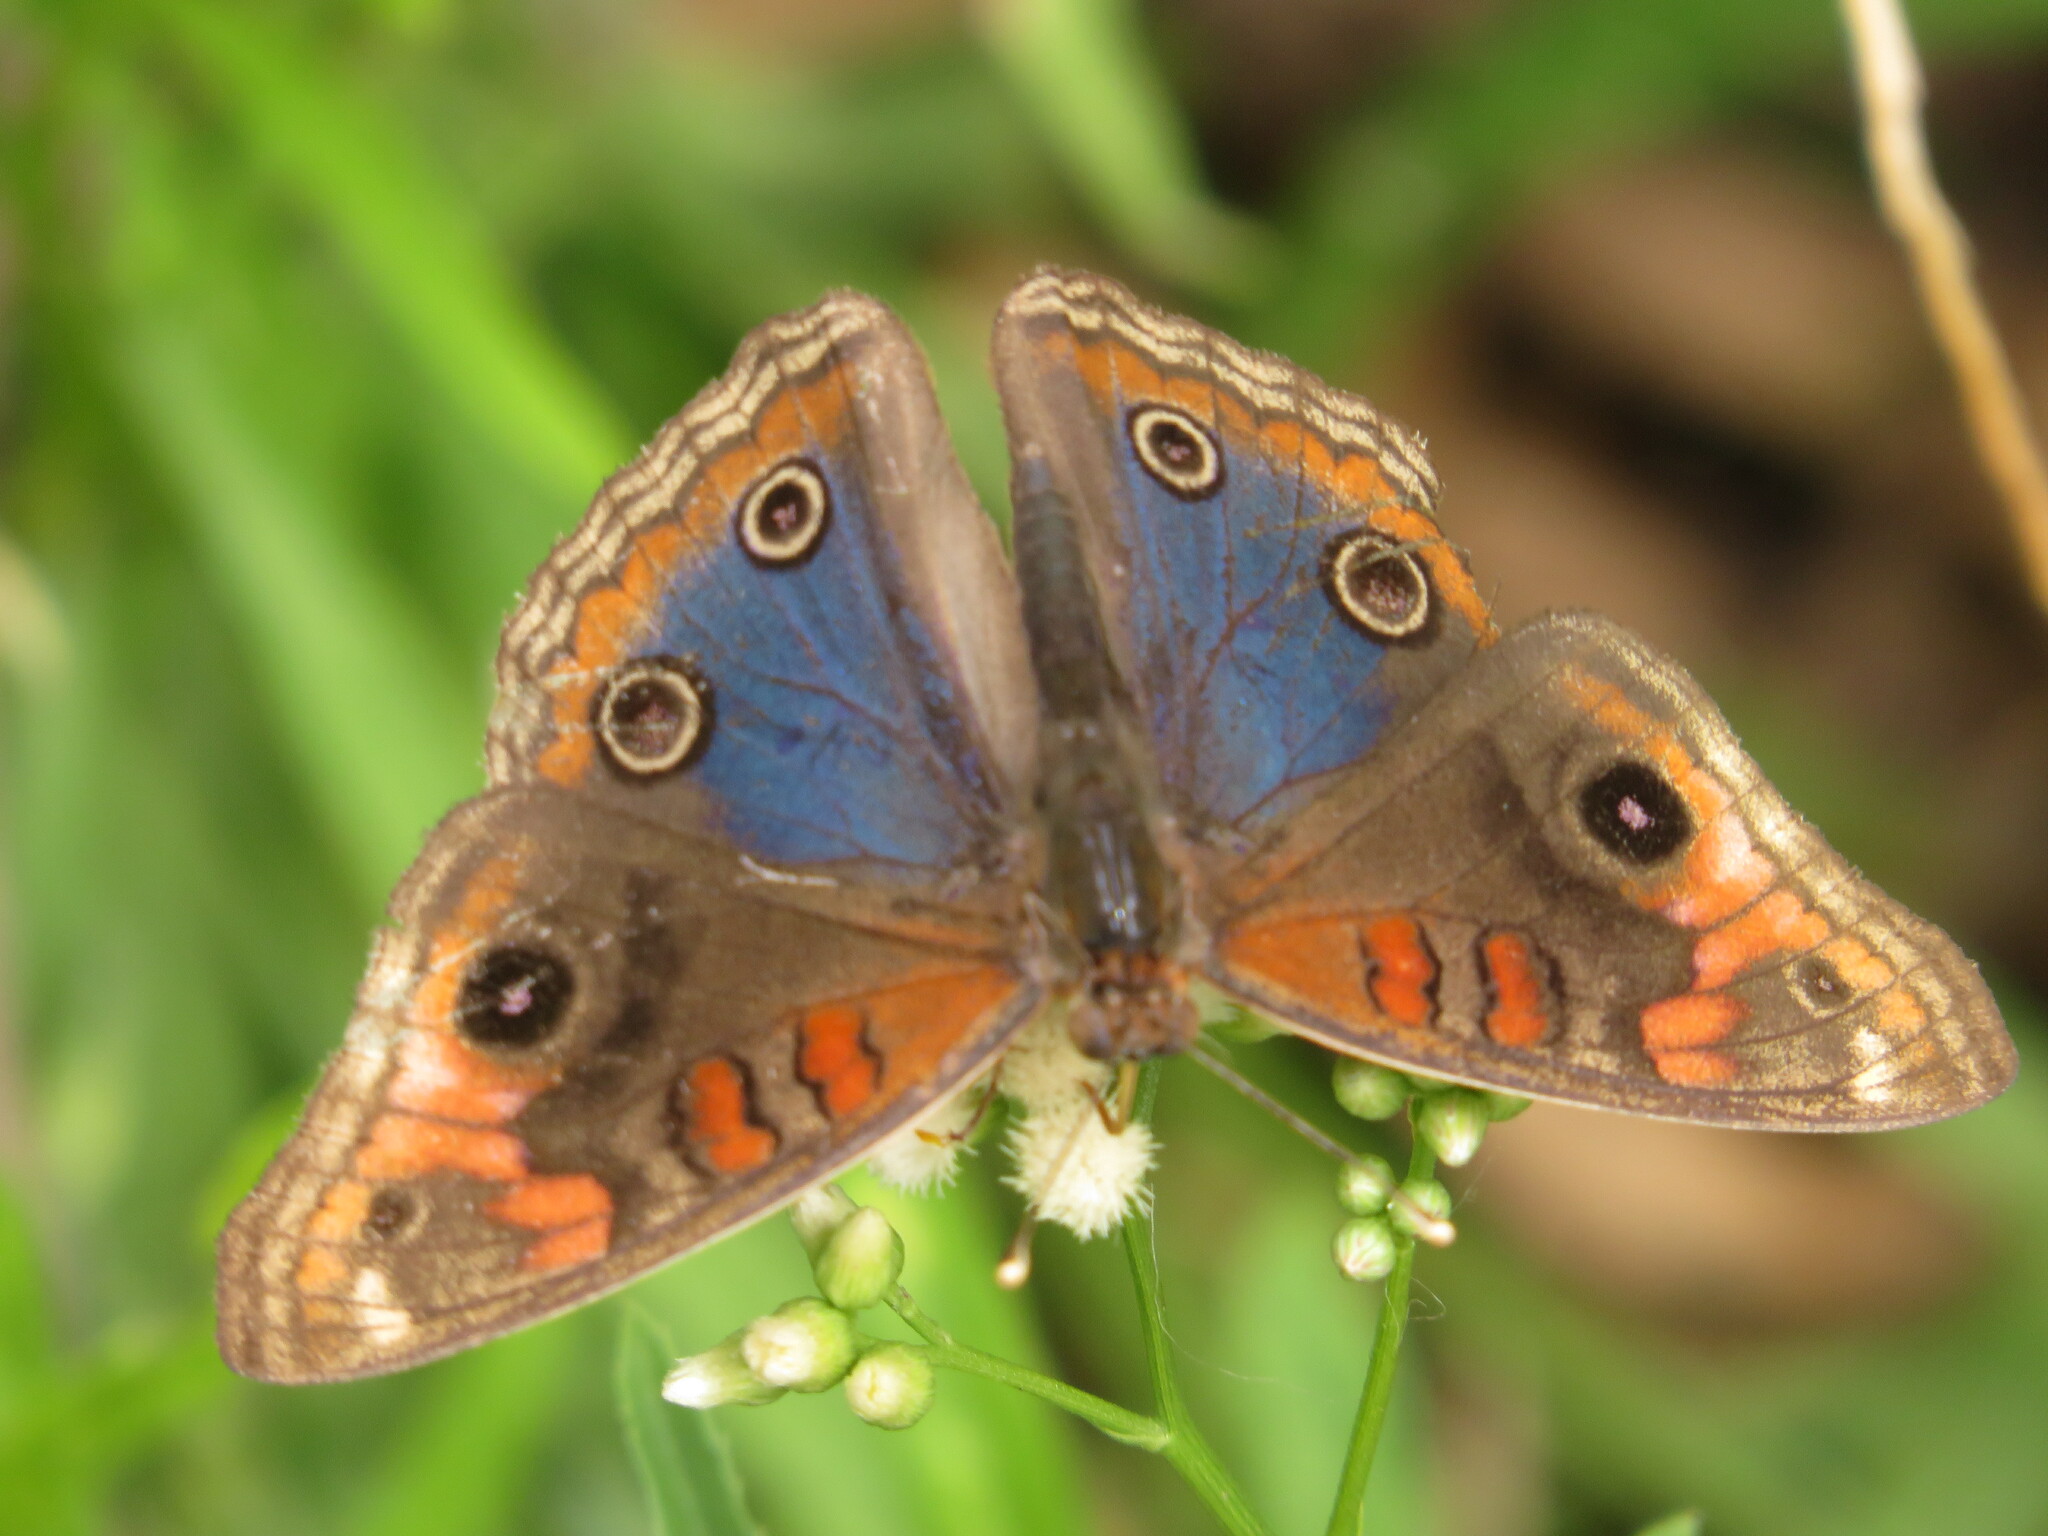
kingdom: Animalia
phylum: Arthropoda
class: Insecta
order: Lepidoptera
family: Nymphalidae
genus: Junonia
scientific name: Junonia lavinia
